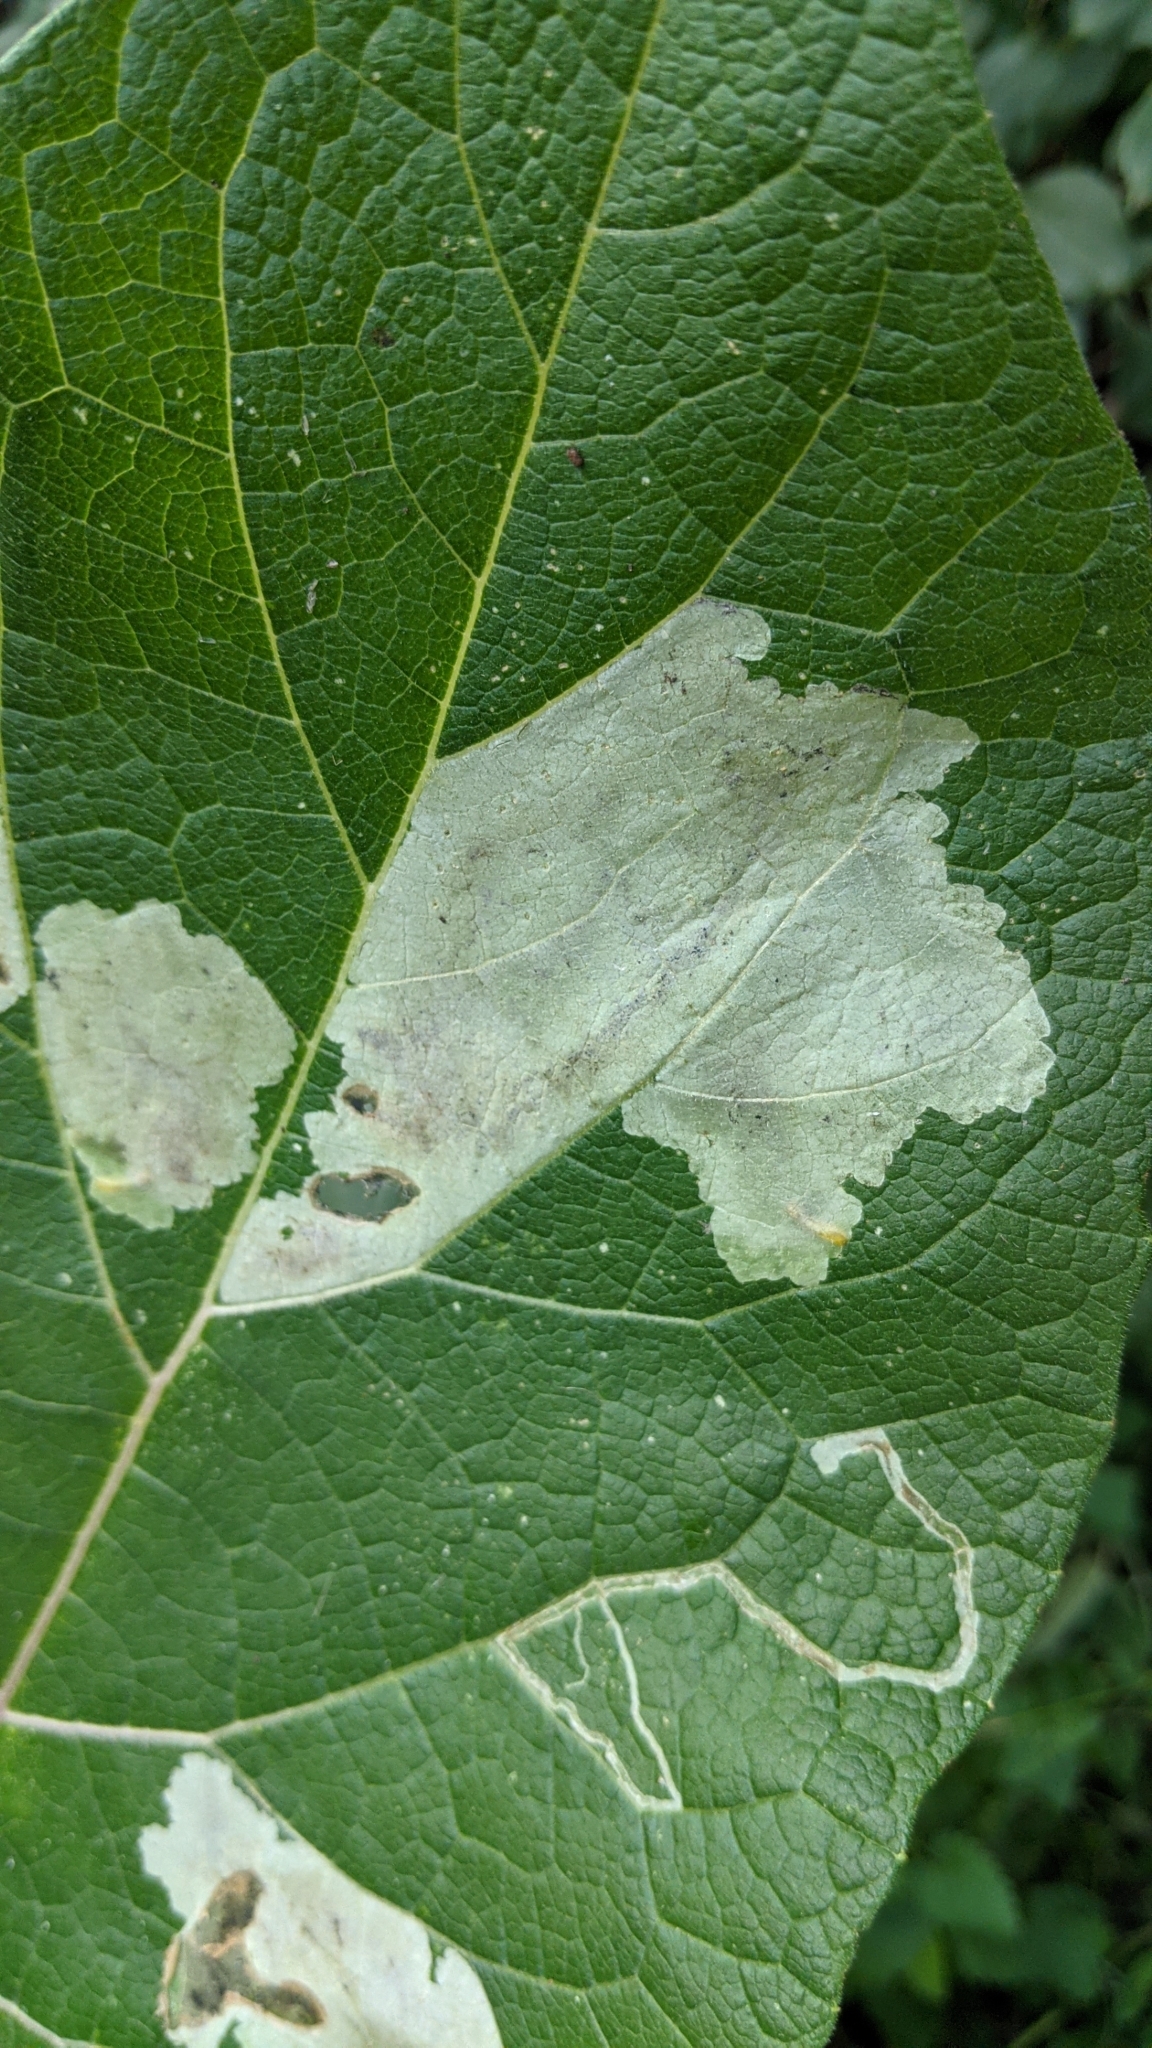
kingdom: Animalia
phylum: Arthropoda
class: Insecta
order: Diptera
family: Agromyzidae
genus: Calycomyza
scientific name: Calycomyza flavinotum
